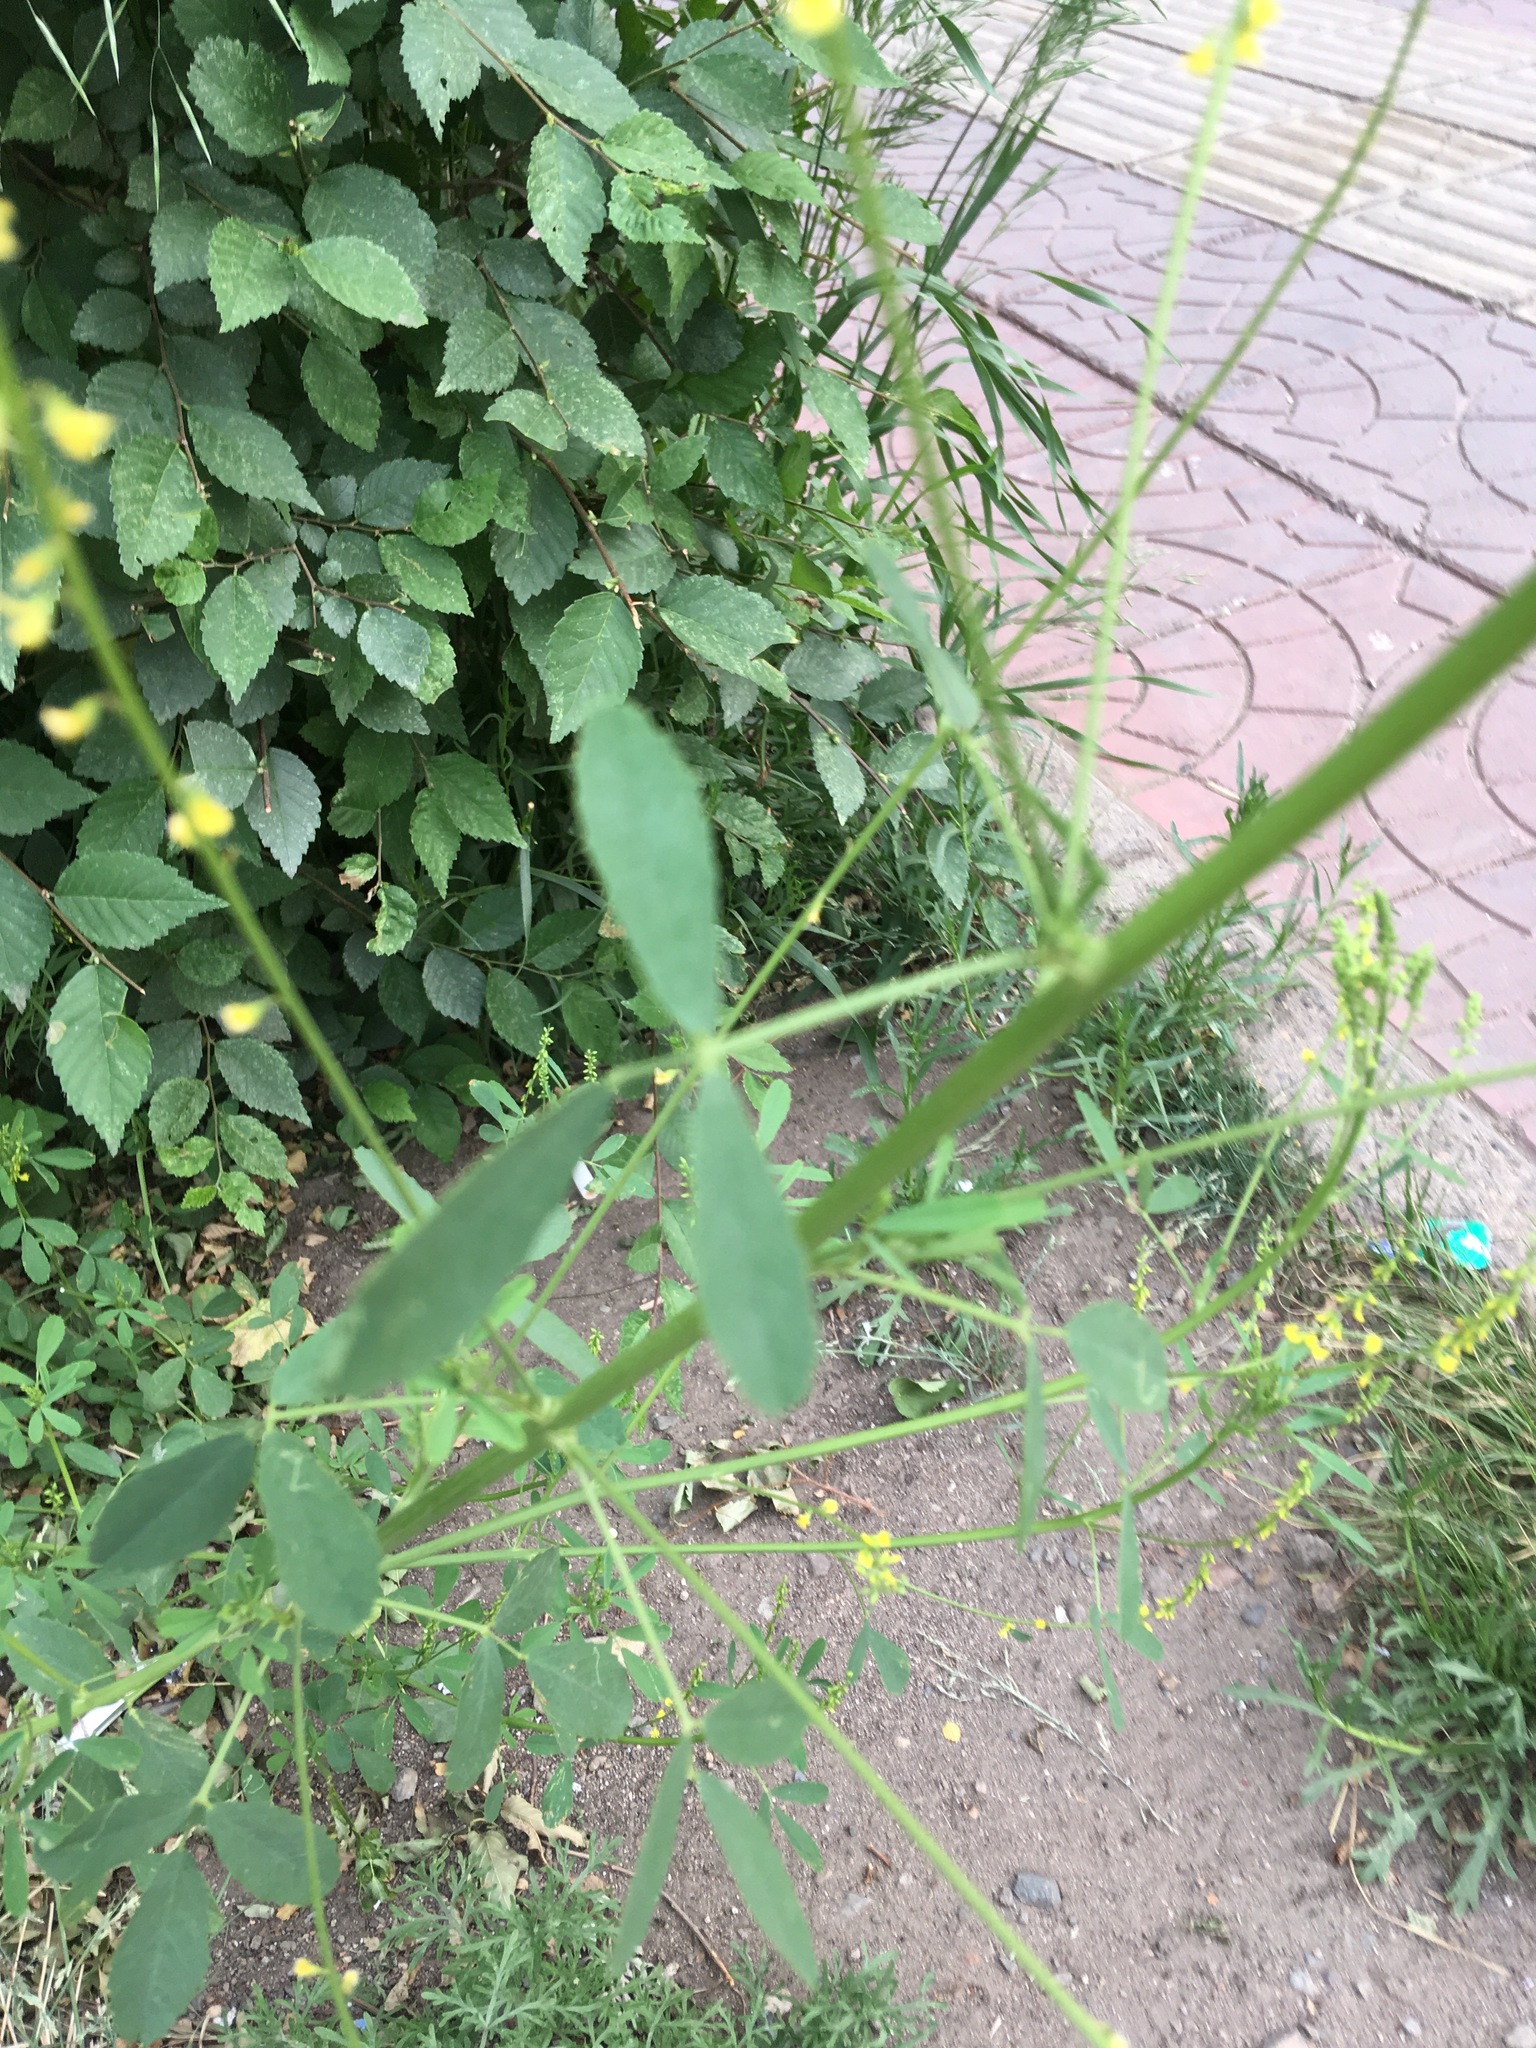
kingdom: Plantae
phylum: Tracheophyta
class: Magnoliopsida
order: Fabales
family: Fabaceae
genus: Melilotus
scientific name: Melilotus officinalis
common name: Sweetclover
